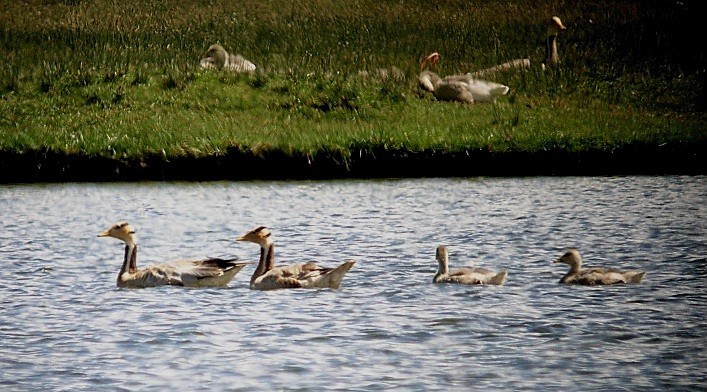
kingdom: Animalia
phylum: Chordata
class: Aves
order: Anseriformes
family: Anatidae
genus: Anser
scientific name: Anser indicus
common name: Bar-headed goose
